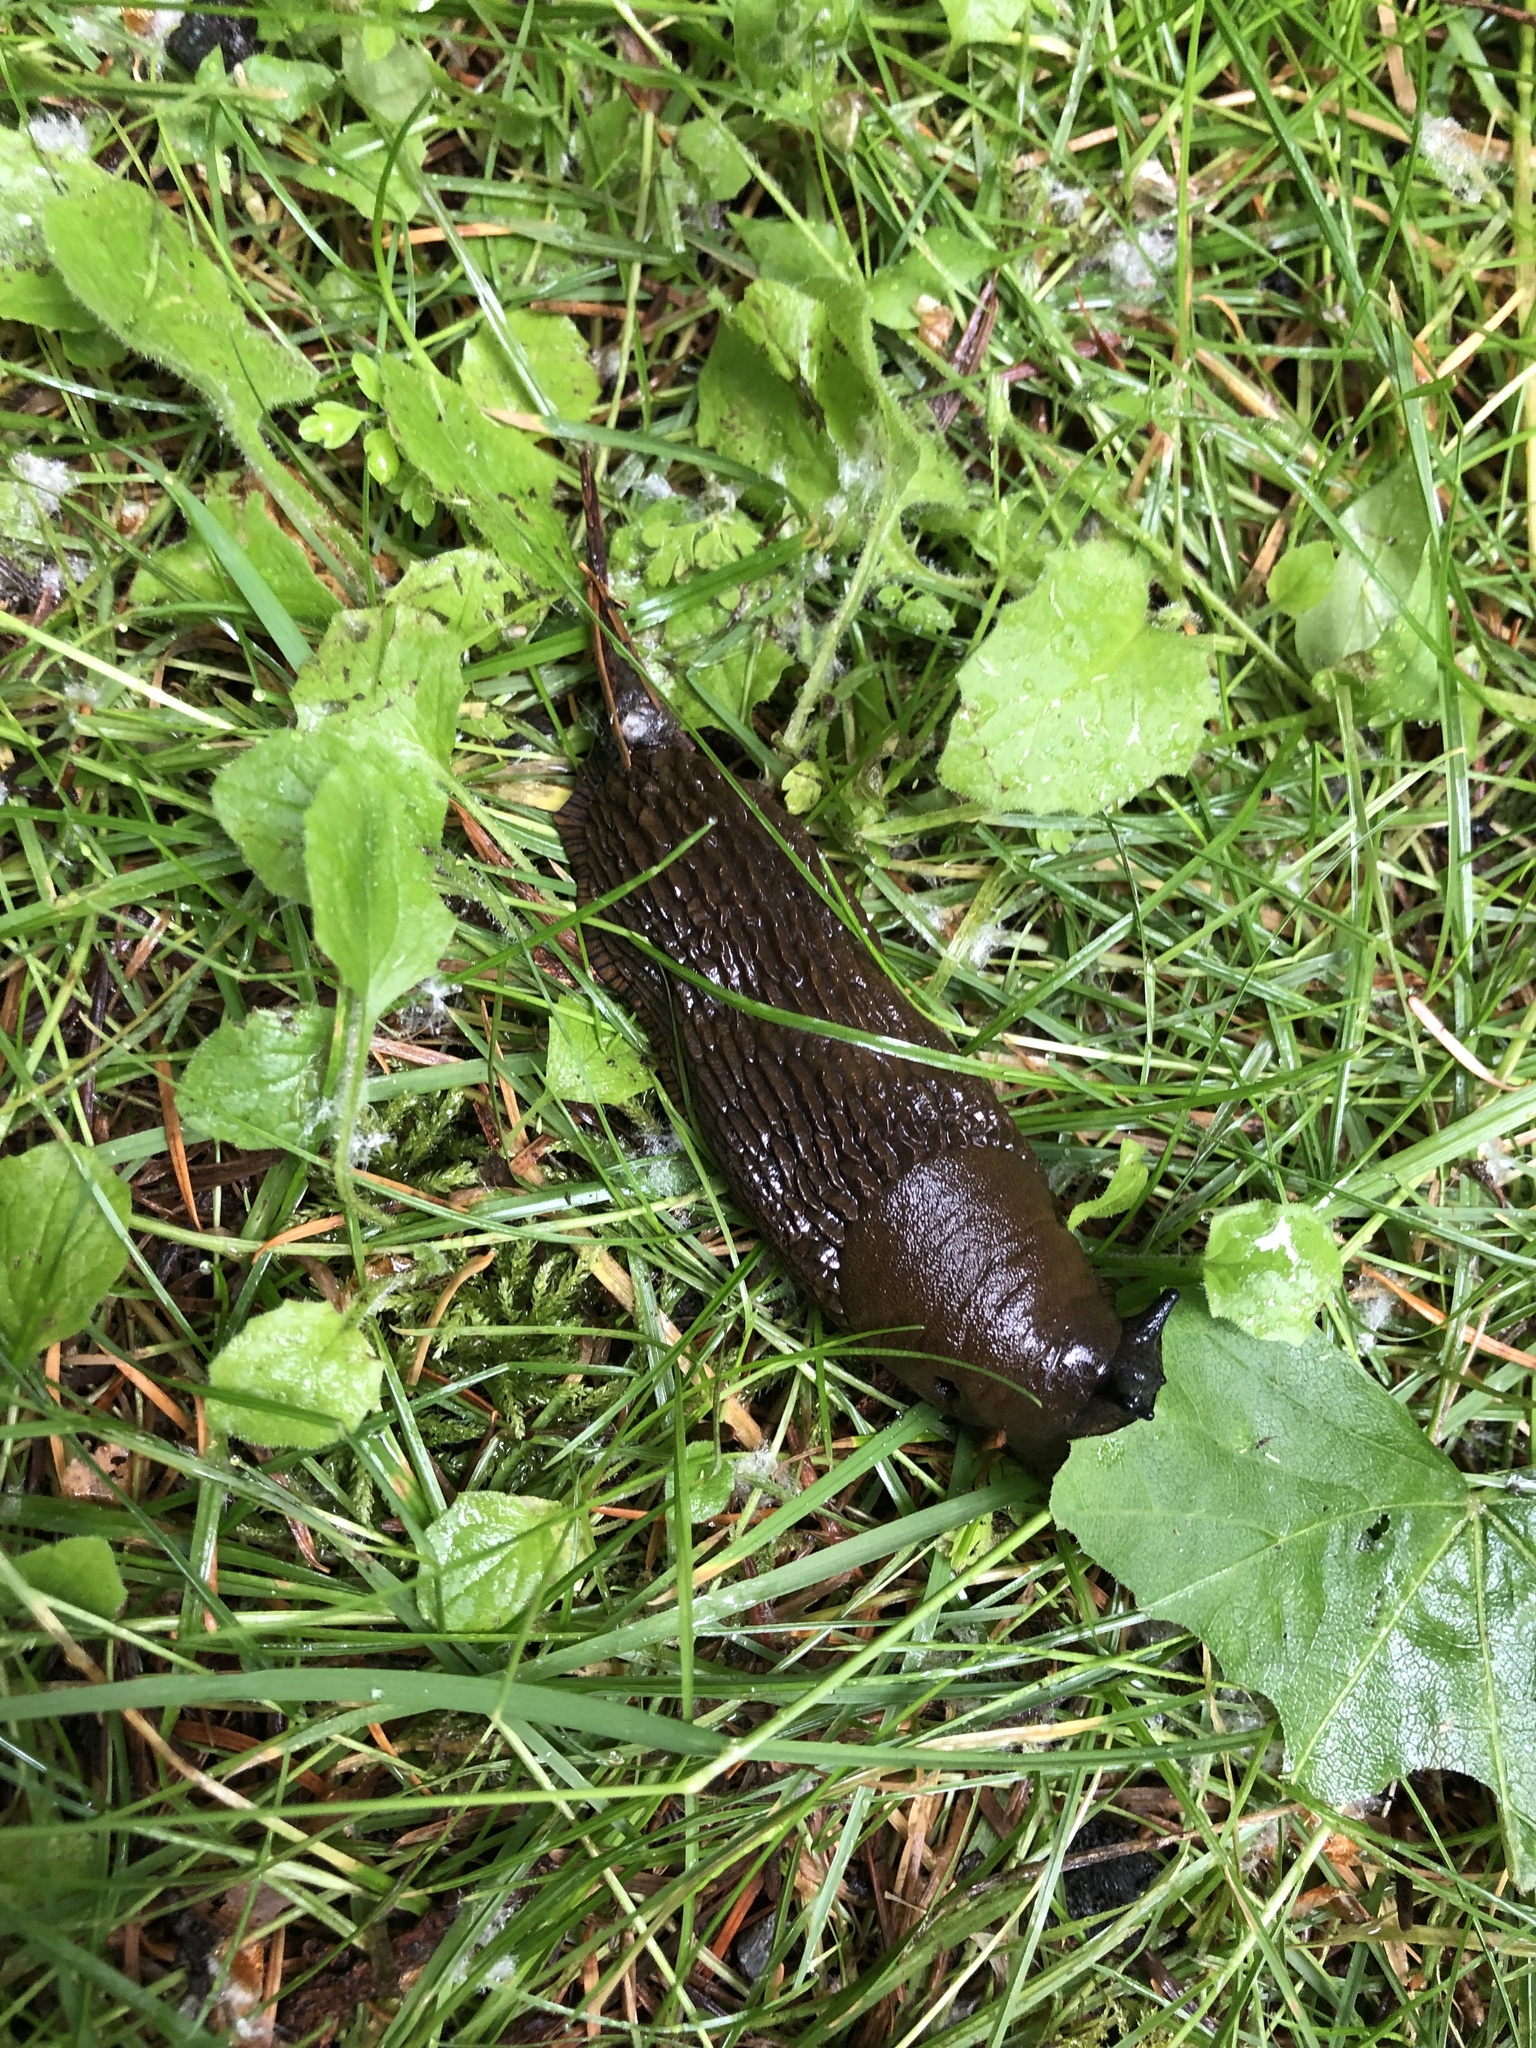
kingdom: Animalia
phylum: Mollusca
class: Gastropoda
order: Stylommatophora
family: Arionidae
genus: Arion
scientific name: Arion
